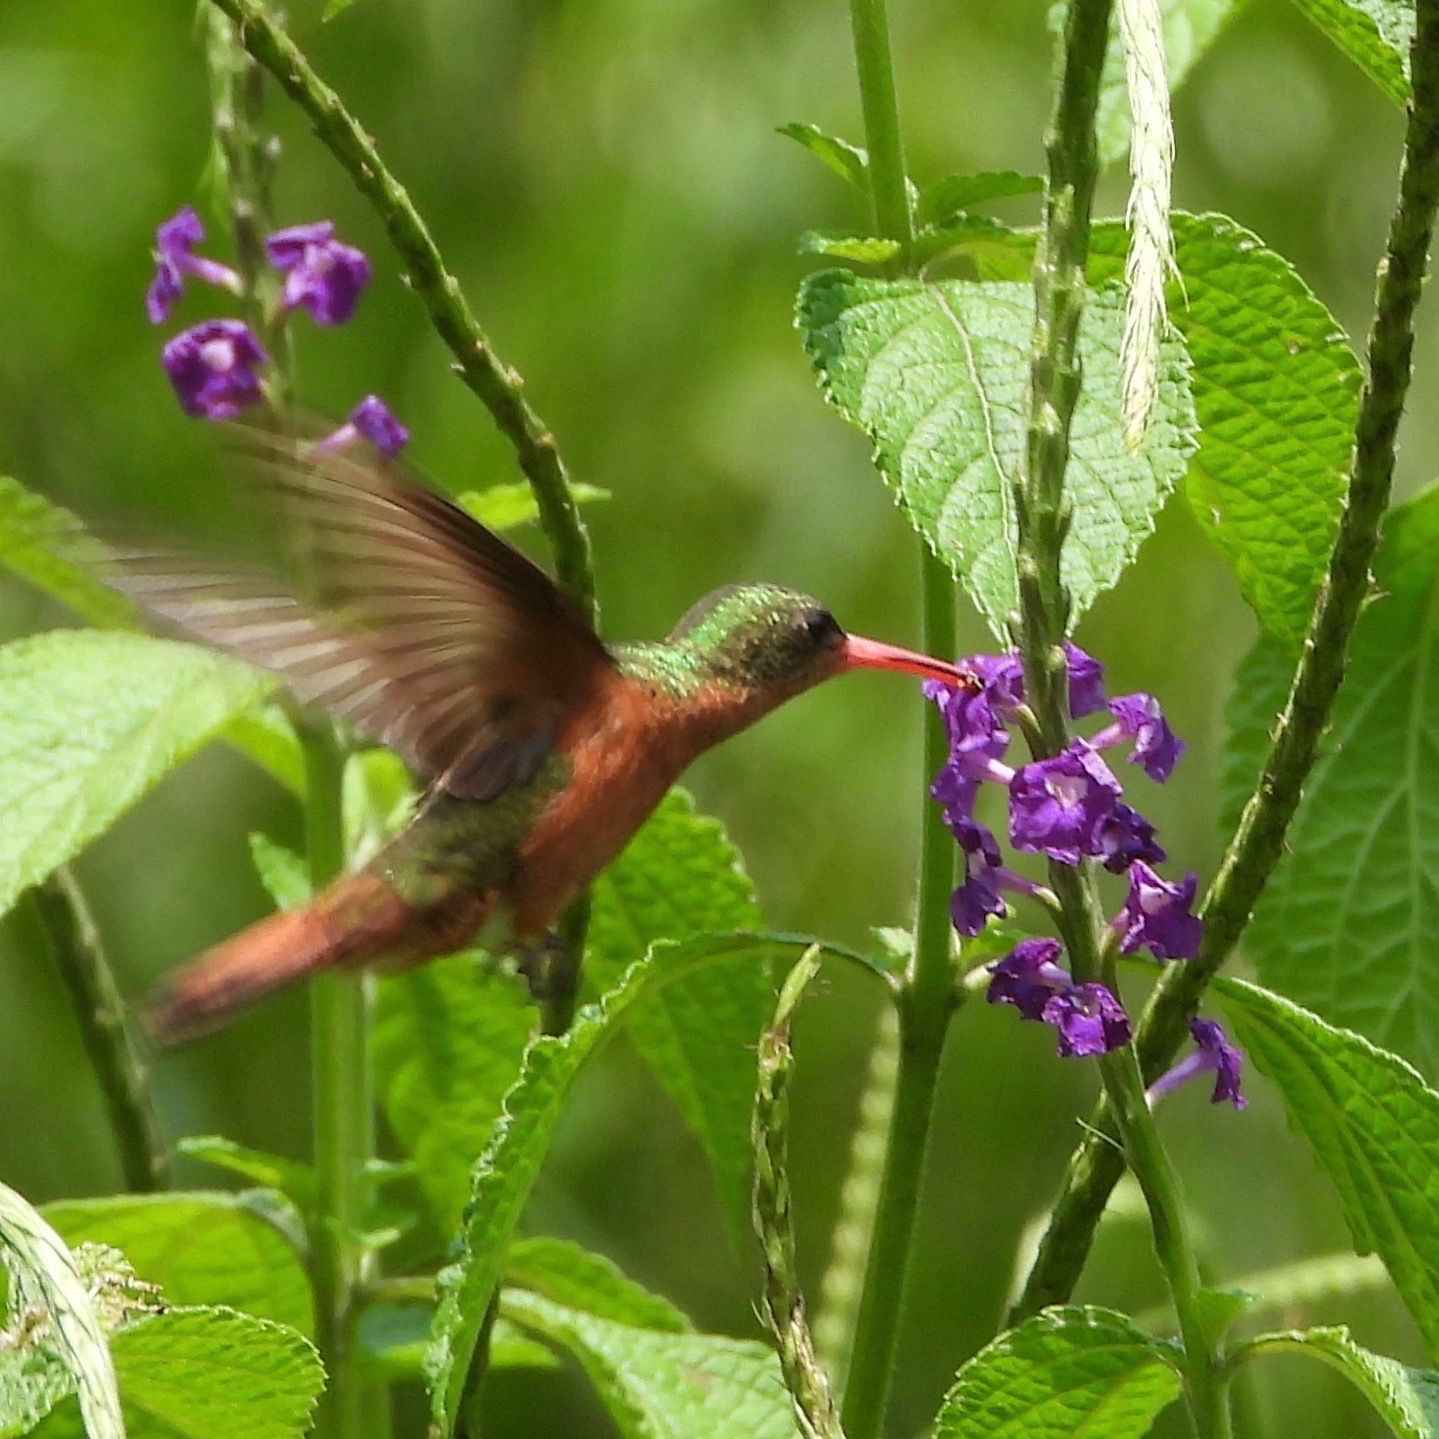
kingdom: Animalia
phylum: Chordata
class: Aves
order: Apodiformes
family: Trochilidae
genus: Amazilia
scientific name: Amazilia rutila
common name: Cinnamon hummingbird
